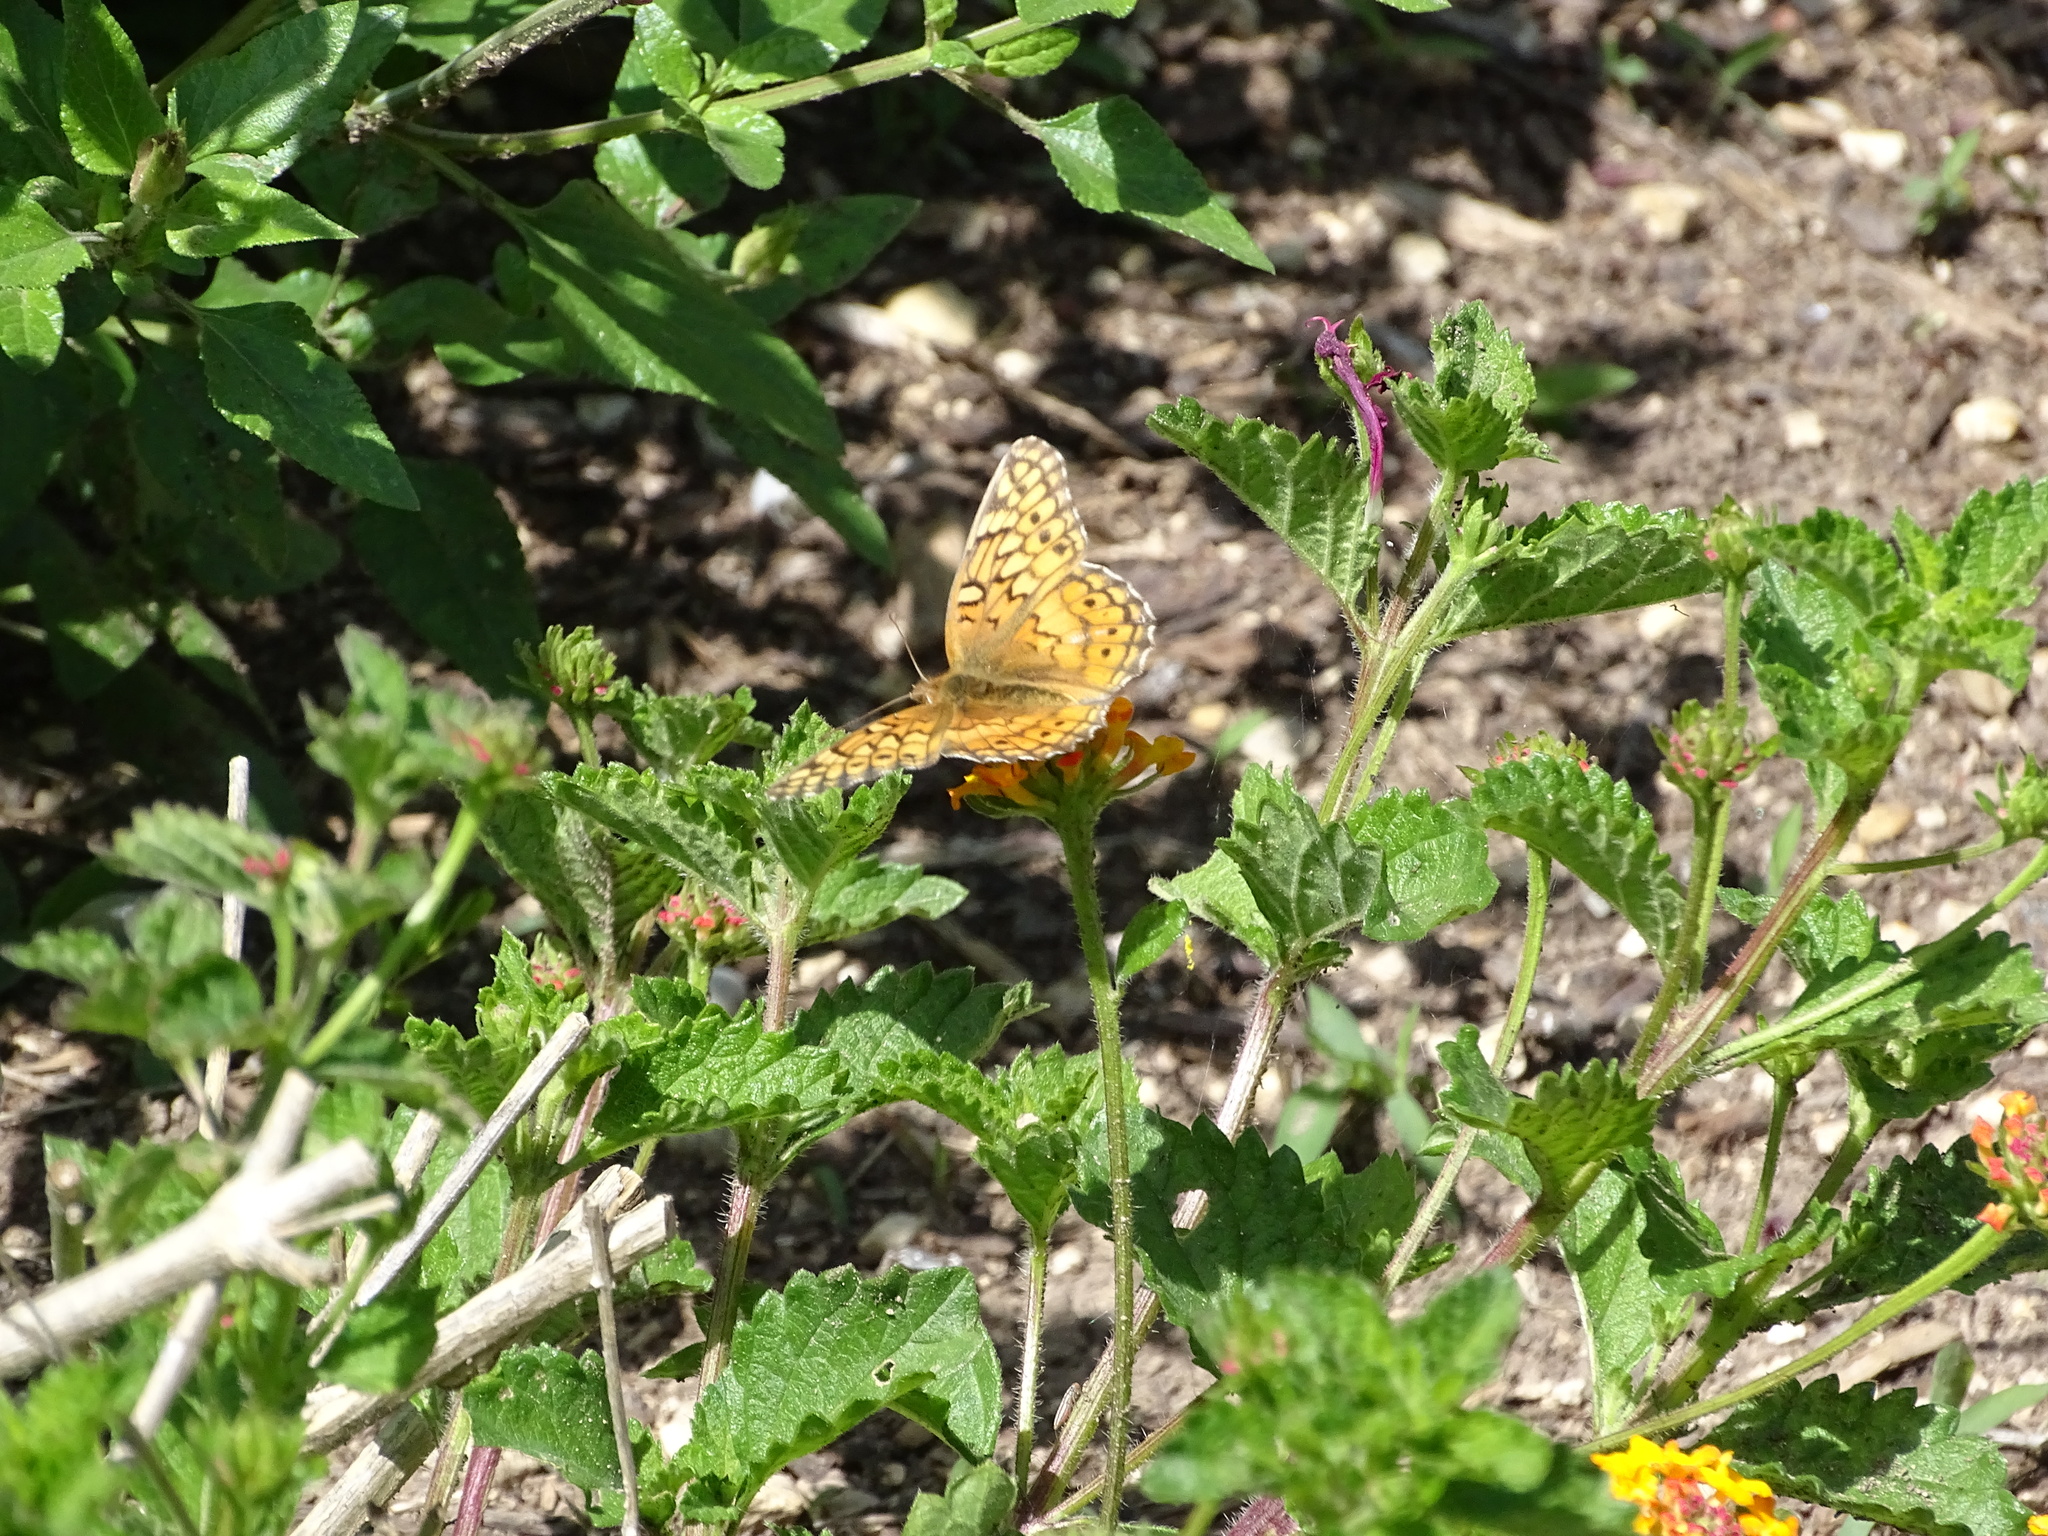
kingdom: Animalia
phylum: Arthropoda
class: Insecta
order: Lepidoptera
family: Nymphalidae
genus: Euptoieta
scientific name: Euptoieta claudia
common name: Variegated fritillary
